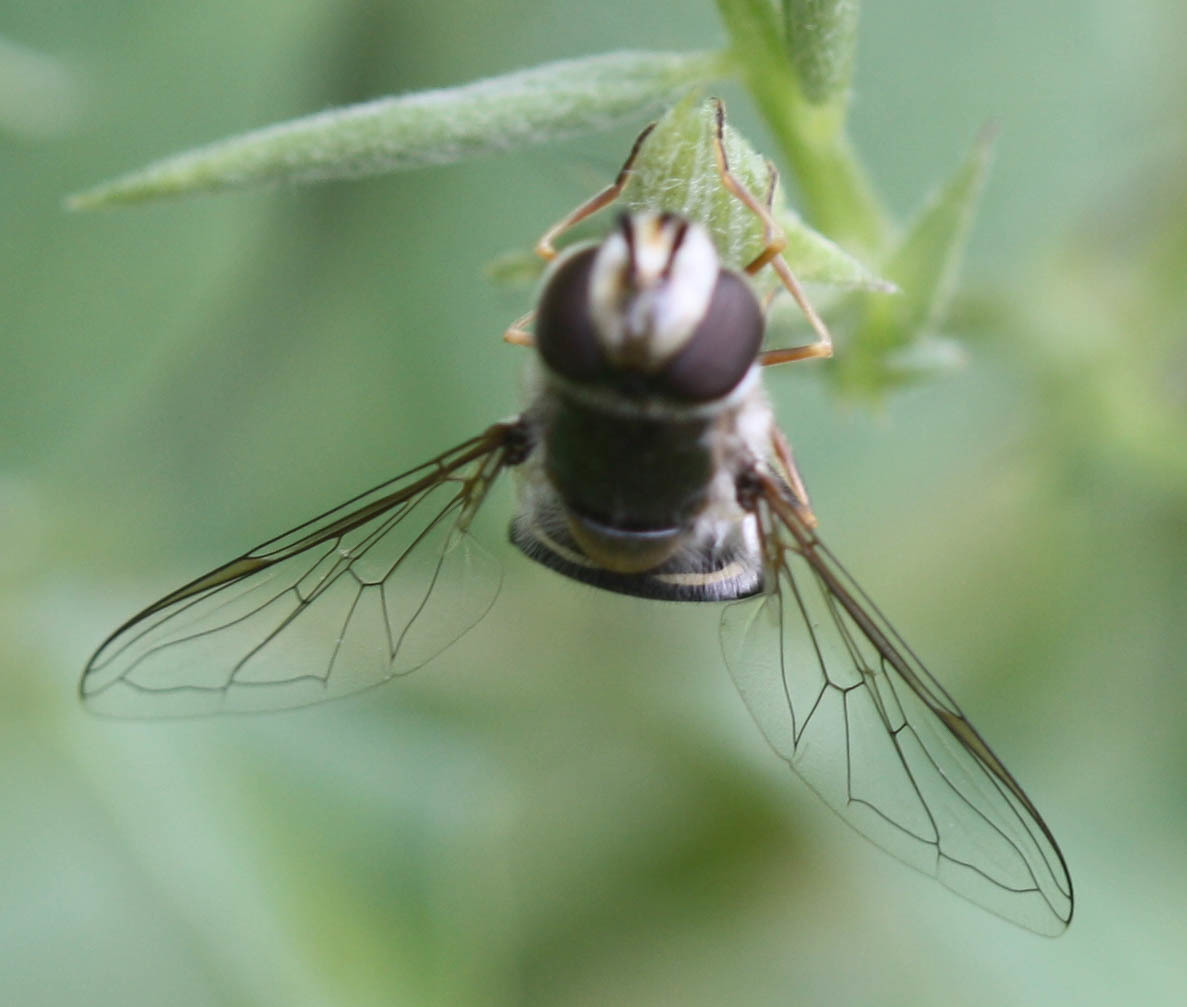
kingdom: Animalia
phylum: Arthropoda
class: Insecta
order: Diptera
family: Syrphidae
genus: Scaeva
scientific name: Scaeva affinis
